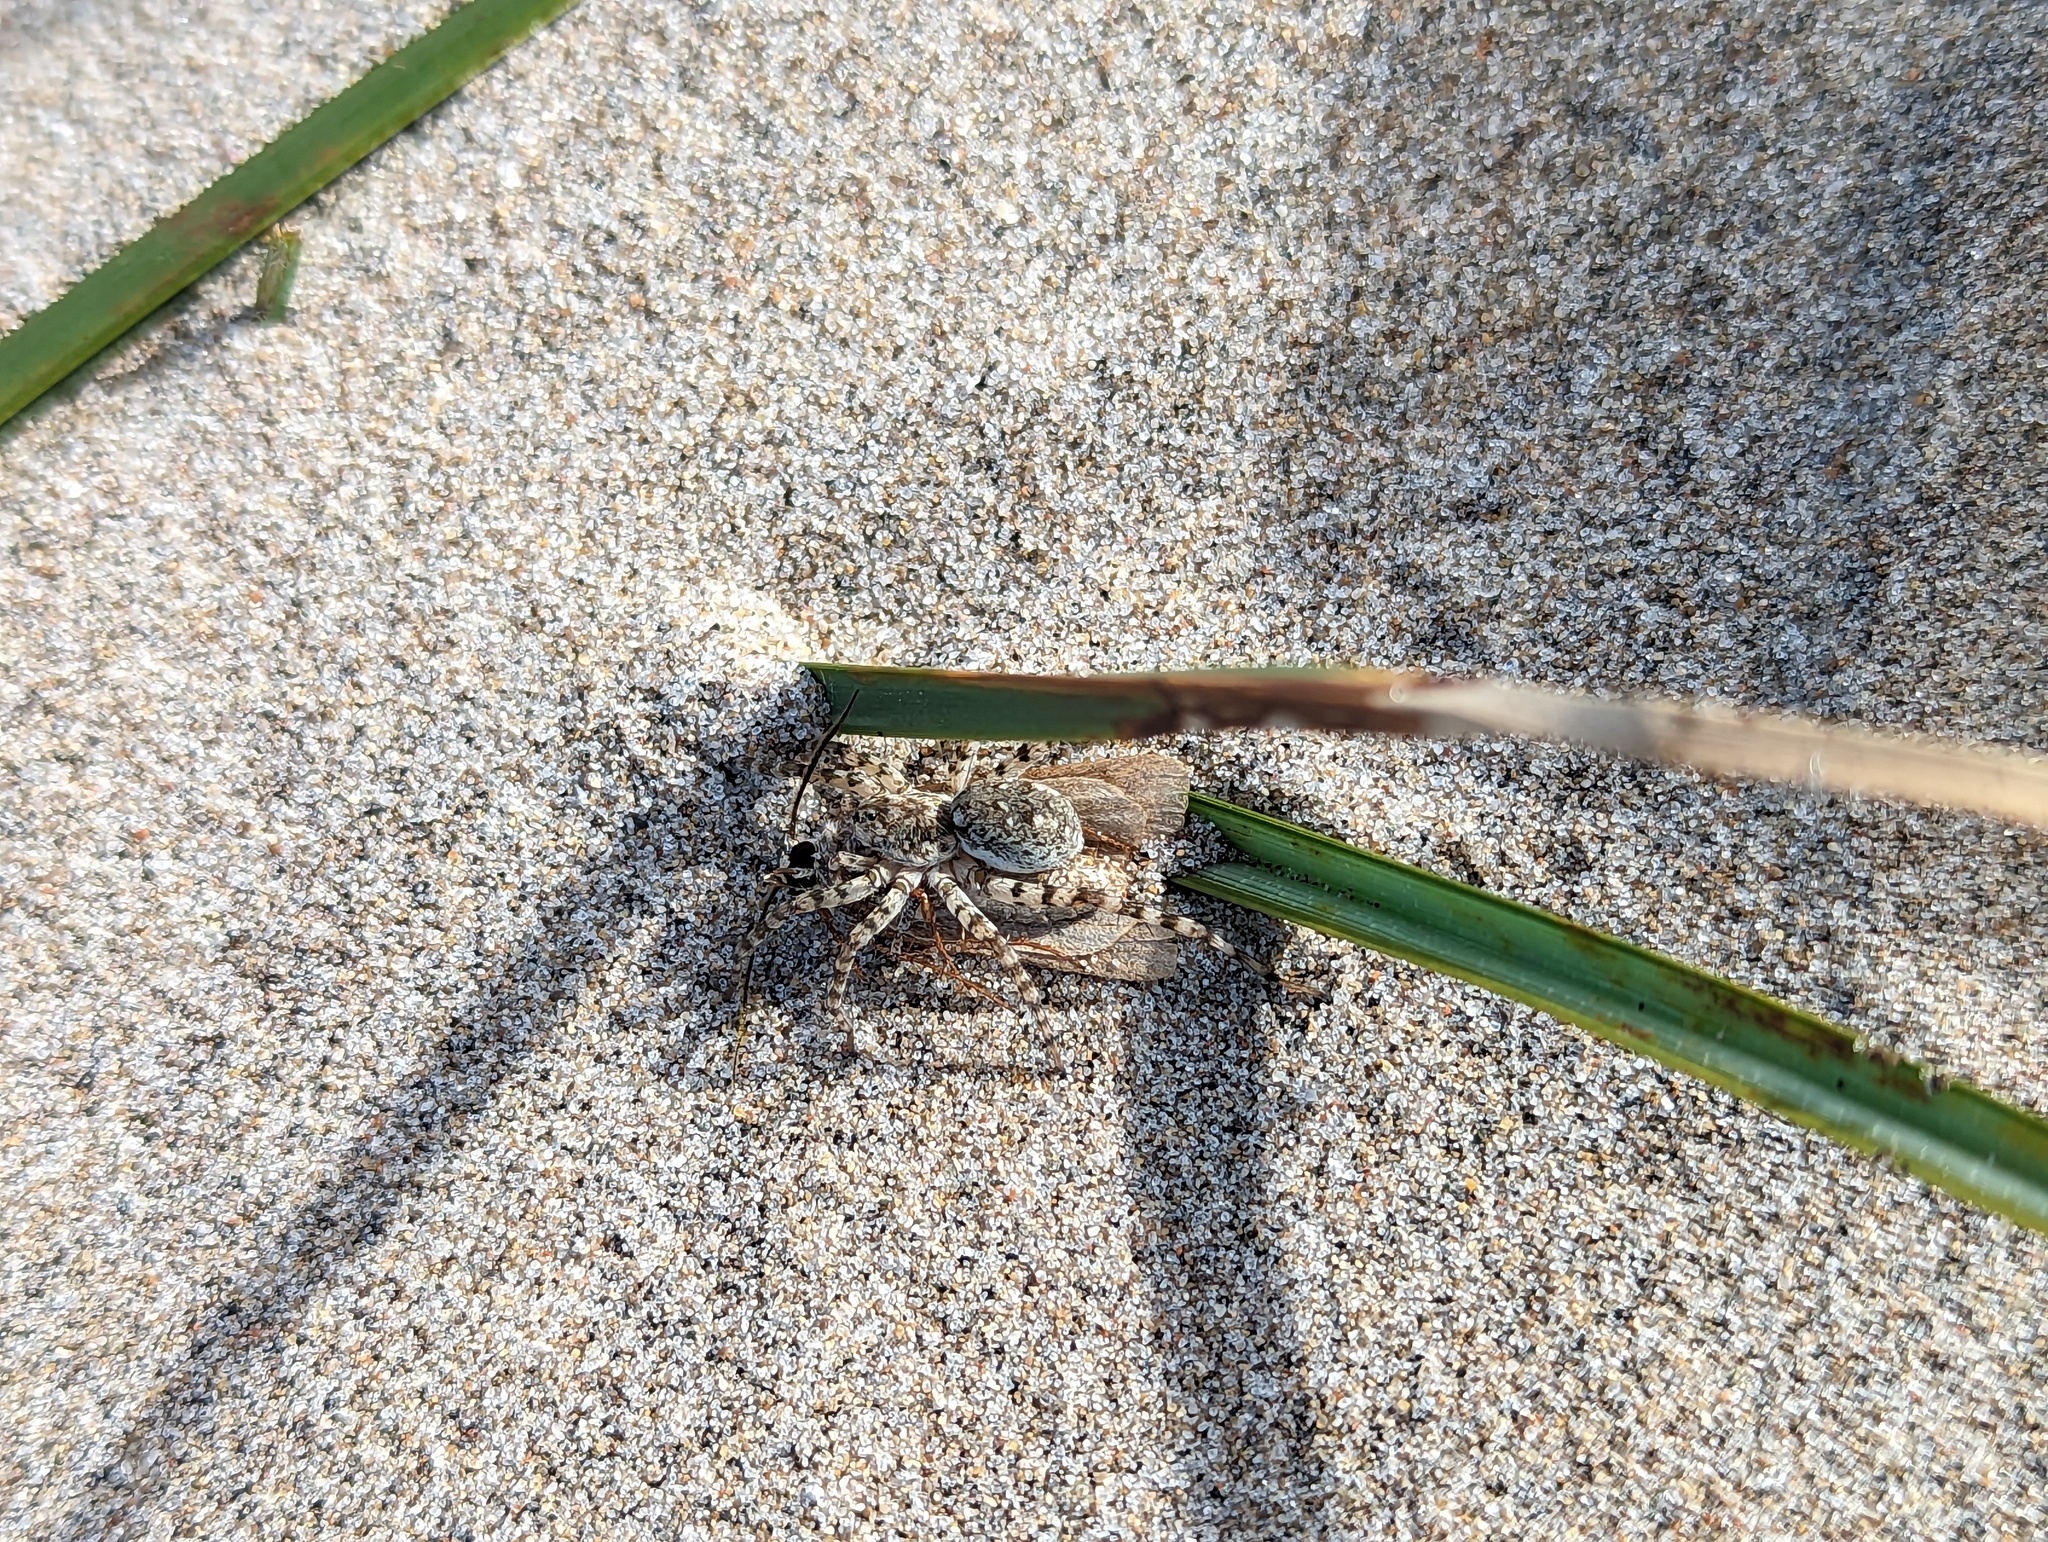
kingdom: Animalia
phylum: Arthropoda
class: Arachnida
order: Araneae
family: Lycosidae
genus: Arctosa
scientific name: Arctosa littoralis
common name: Wolf spiders
